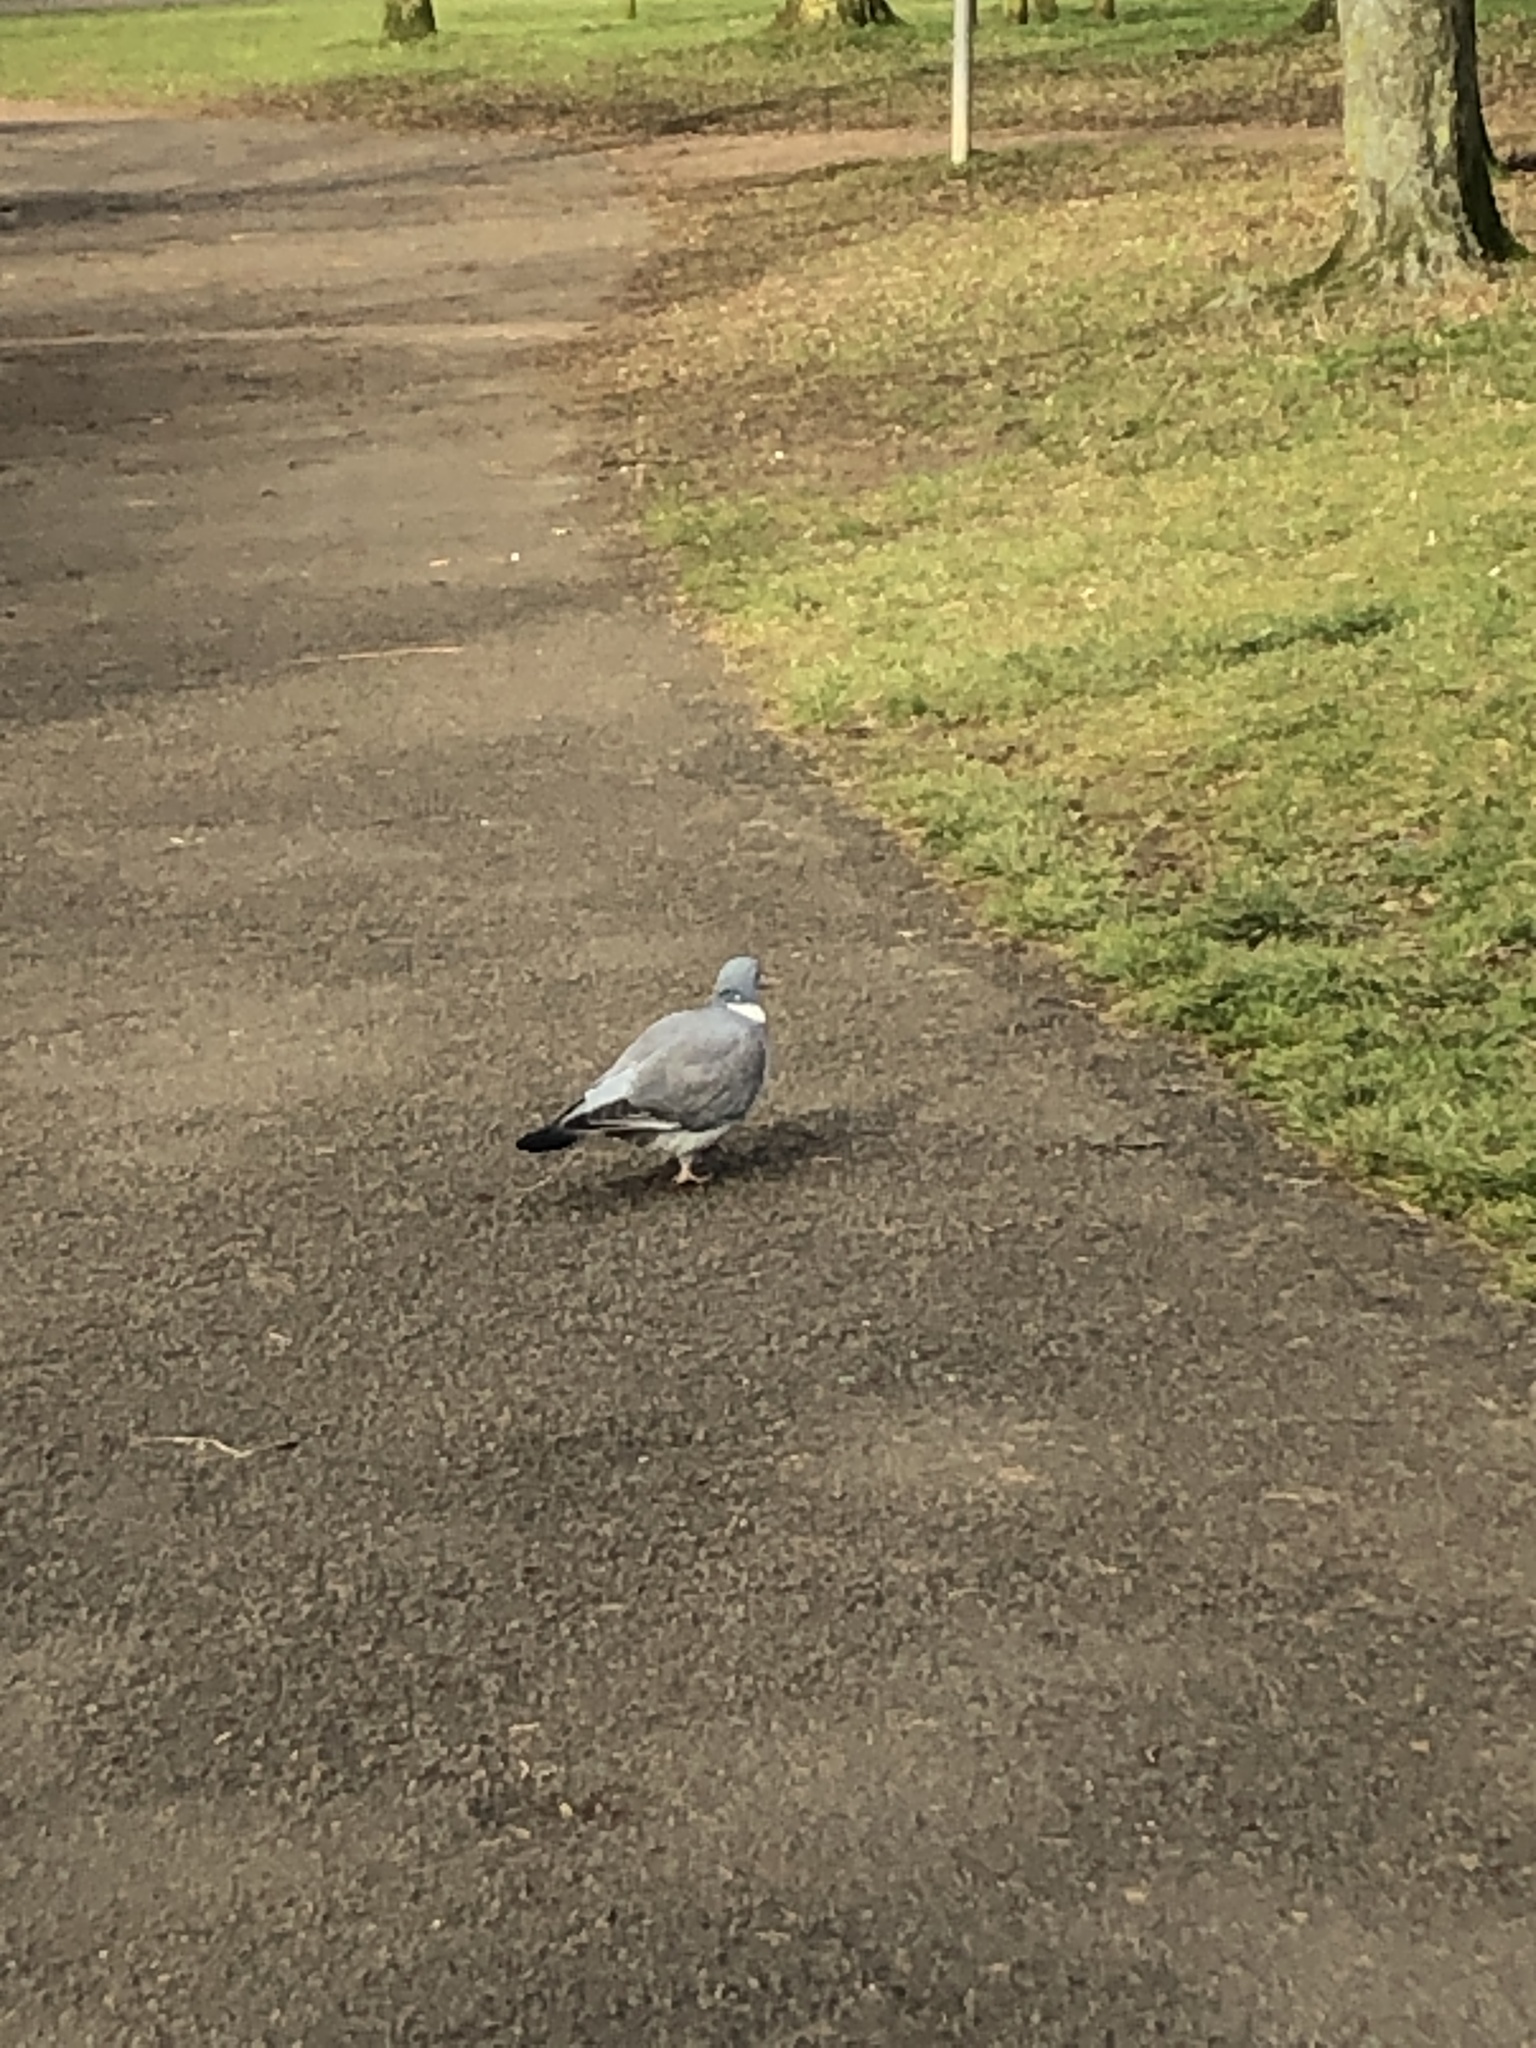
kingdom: Animalia
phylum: Chordata
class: Aves
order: Columbiformes
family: Columbidae
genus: Columba
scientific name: Columba palumbus
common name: Common wood pigeon
